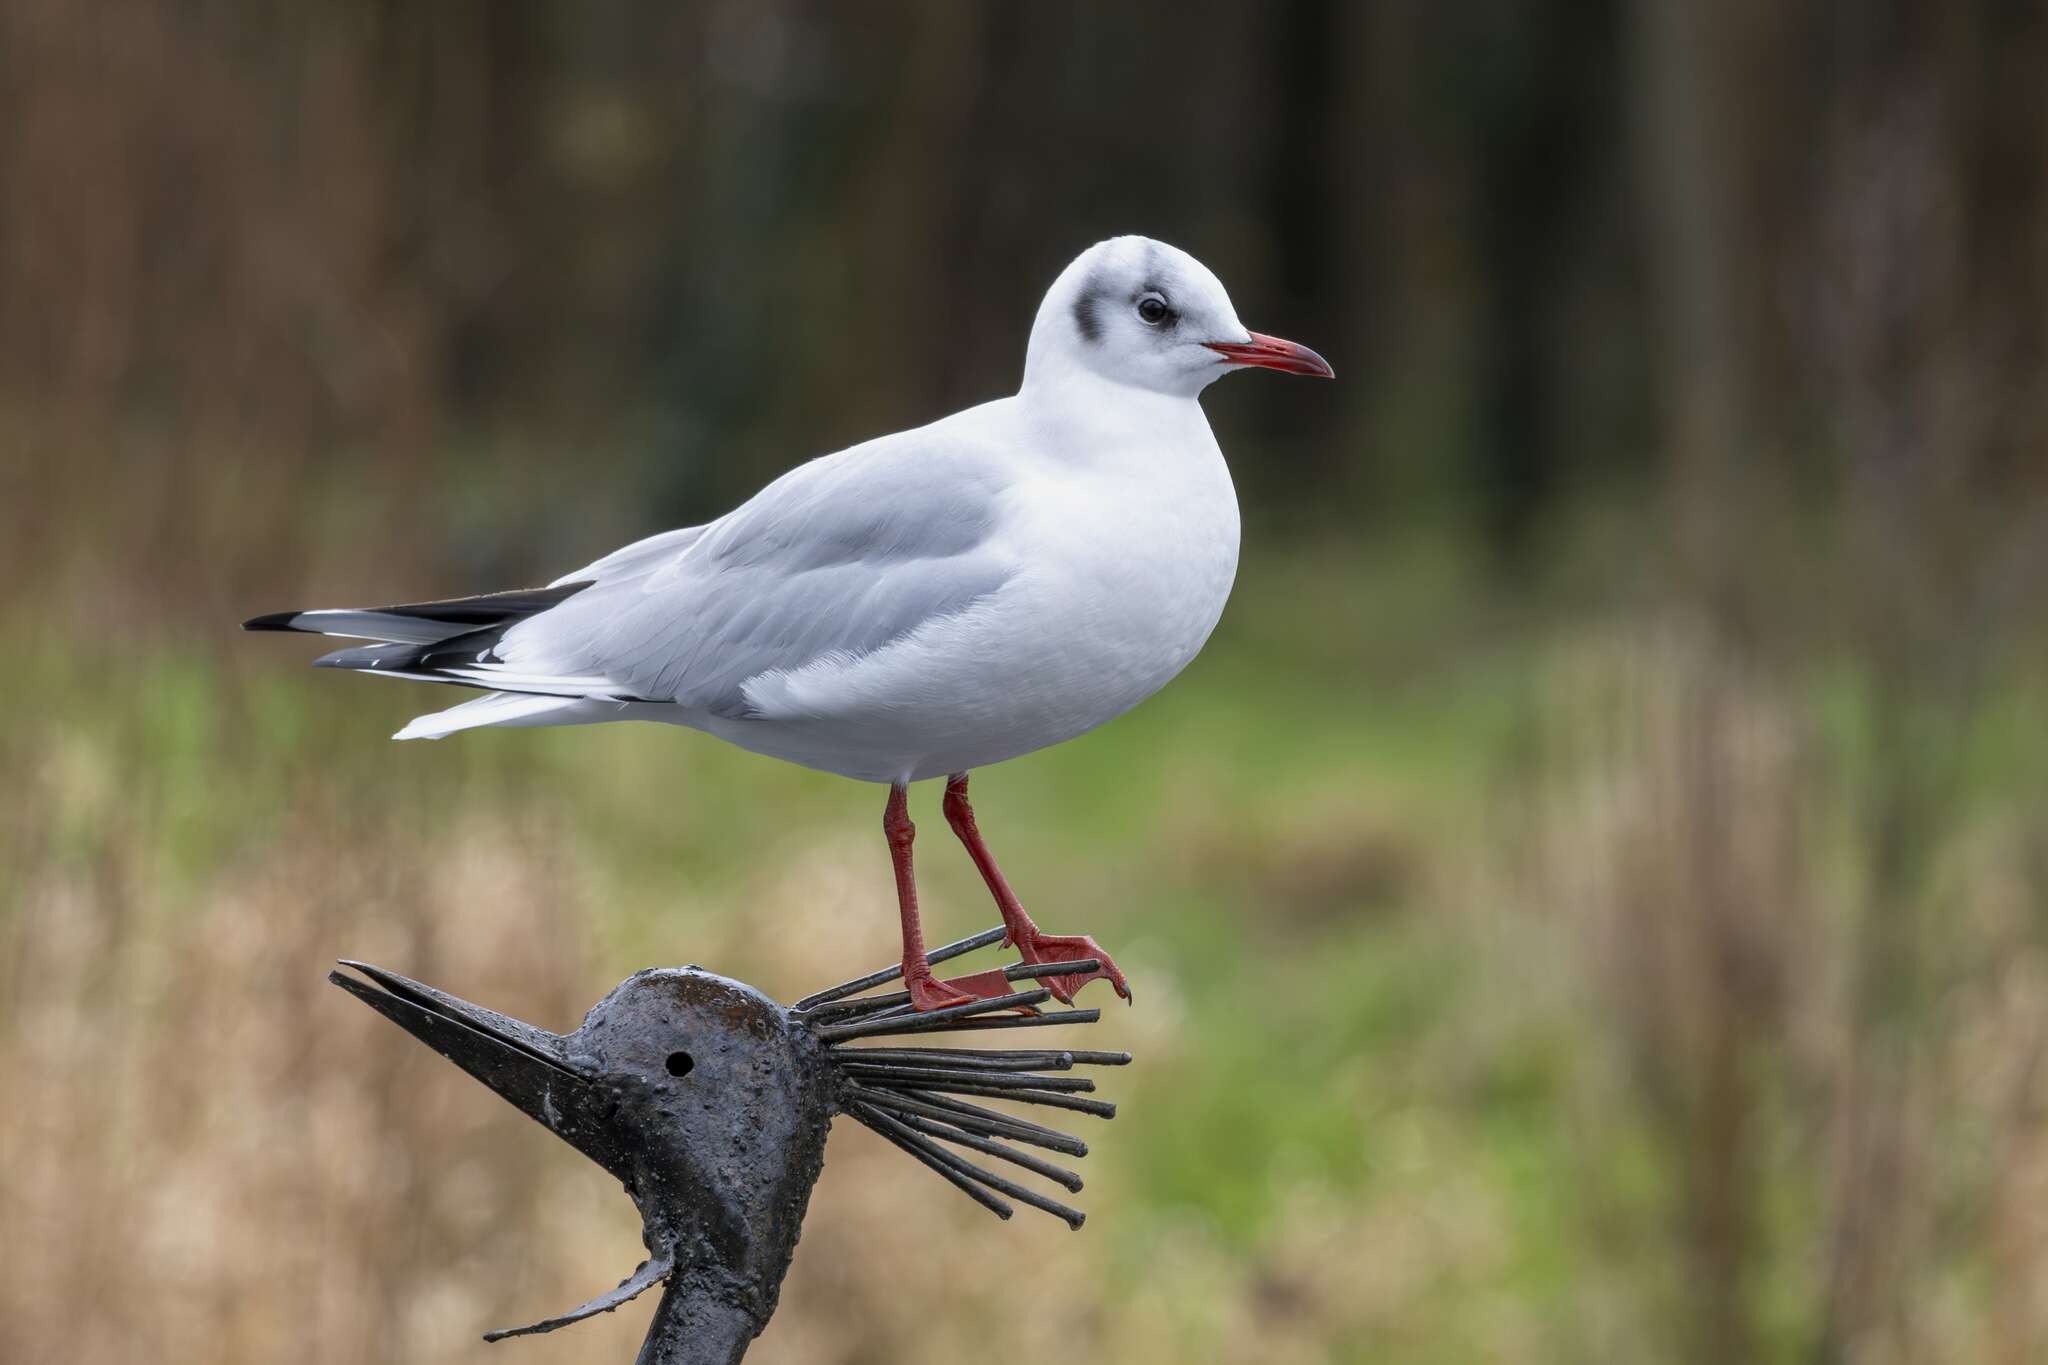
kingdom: Animalia
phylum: Chordata
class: Aves
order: Charadriiformes
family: Laridae
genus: Chroicocephalus
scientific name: Chroicocephalus ridibundus
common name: Black-headed gull
